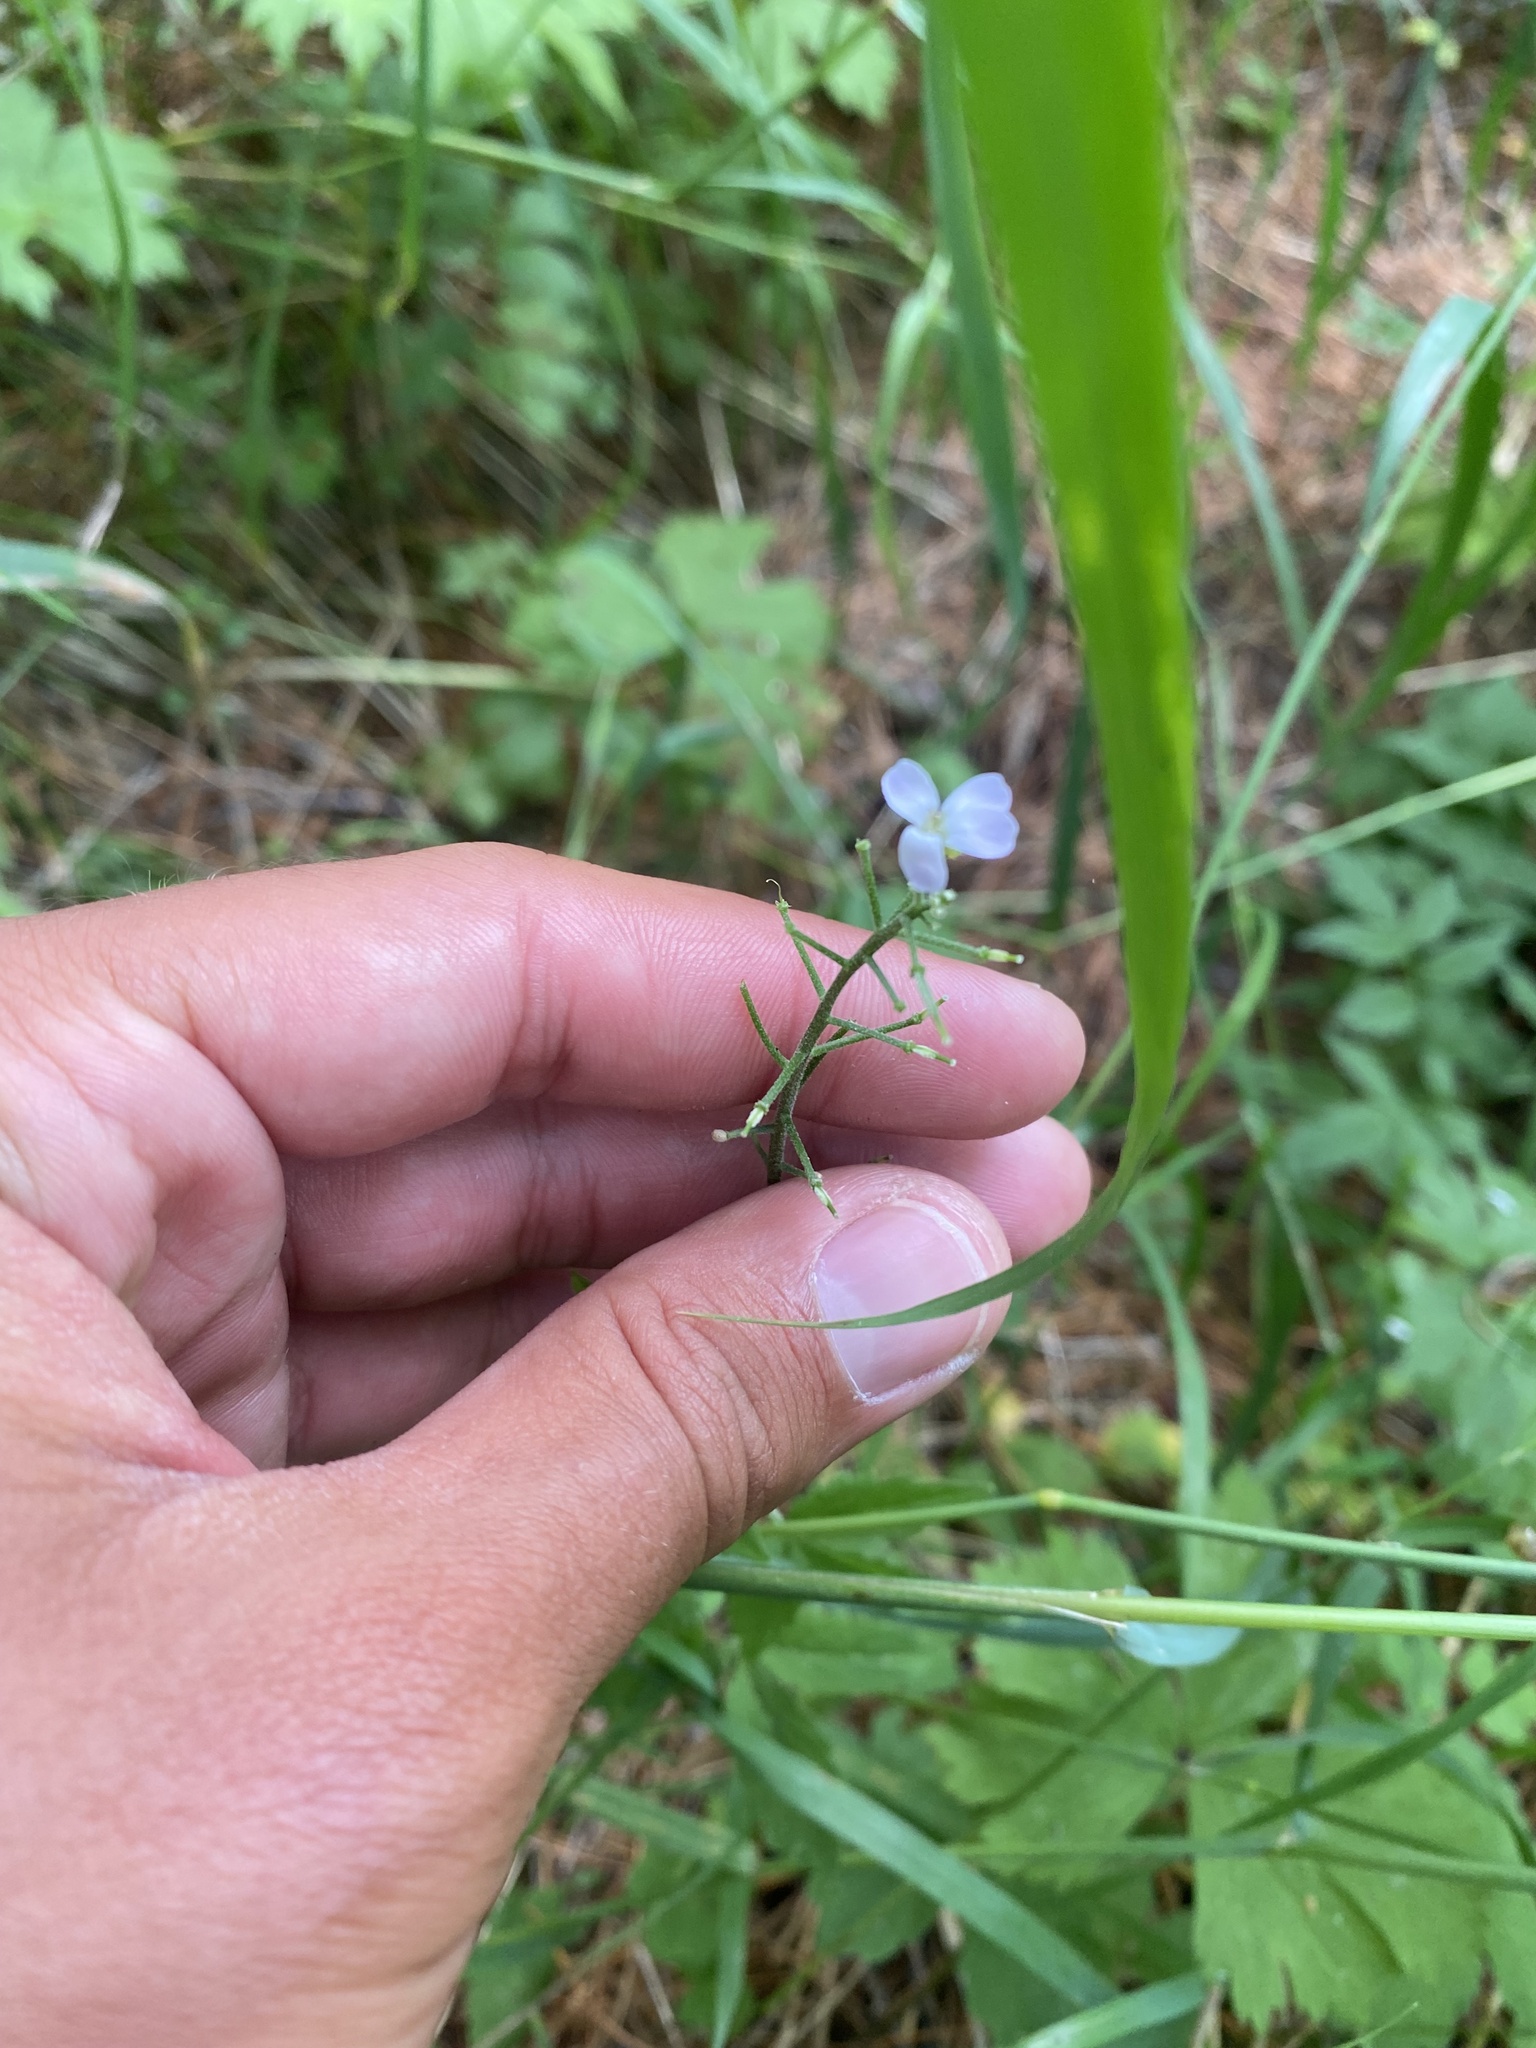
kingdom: Plantae
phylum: Tracheophyta
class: Magnoliopsida
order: Brassicales
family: Brassicaceae
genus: Cardamine
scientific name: Cardamine macrophylla
